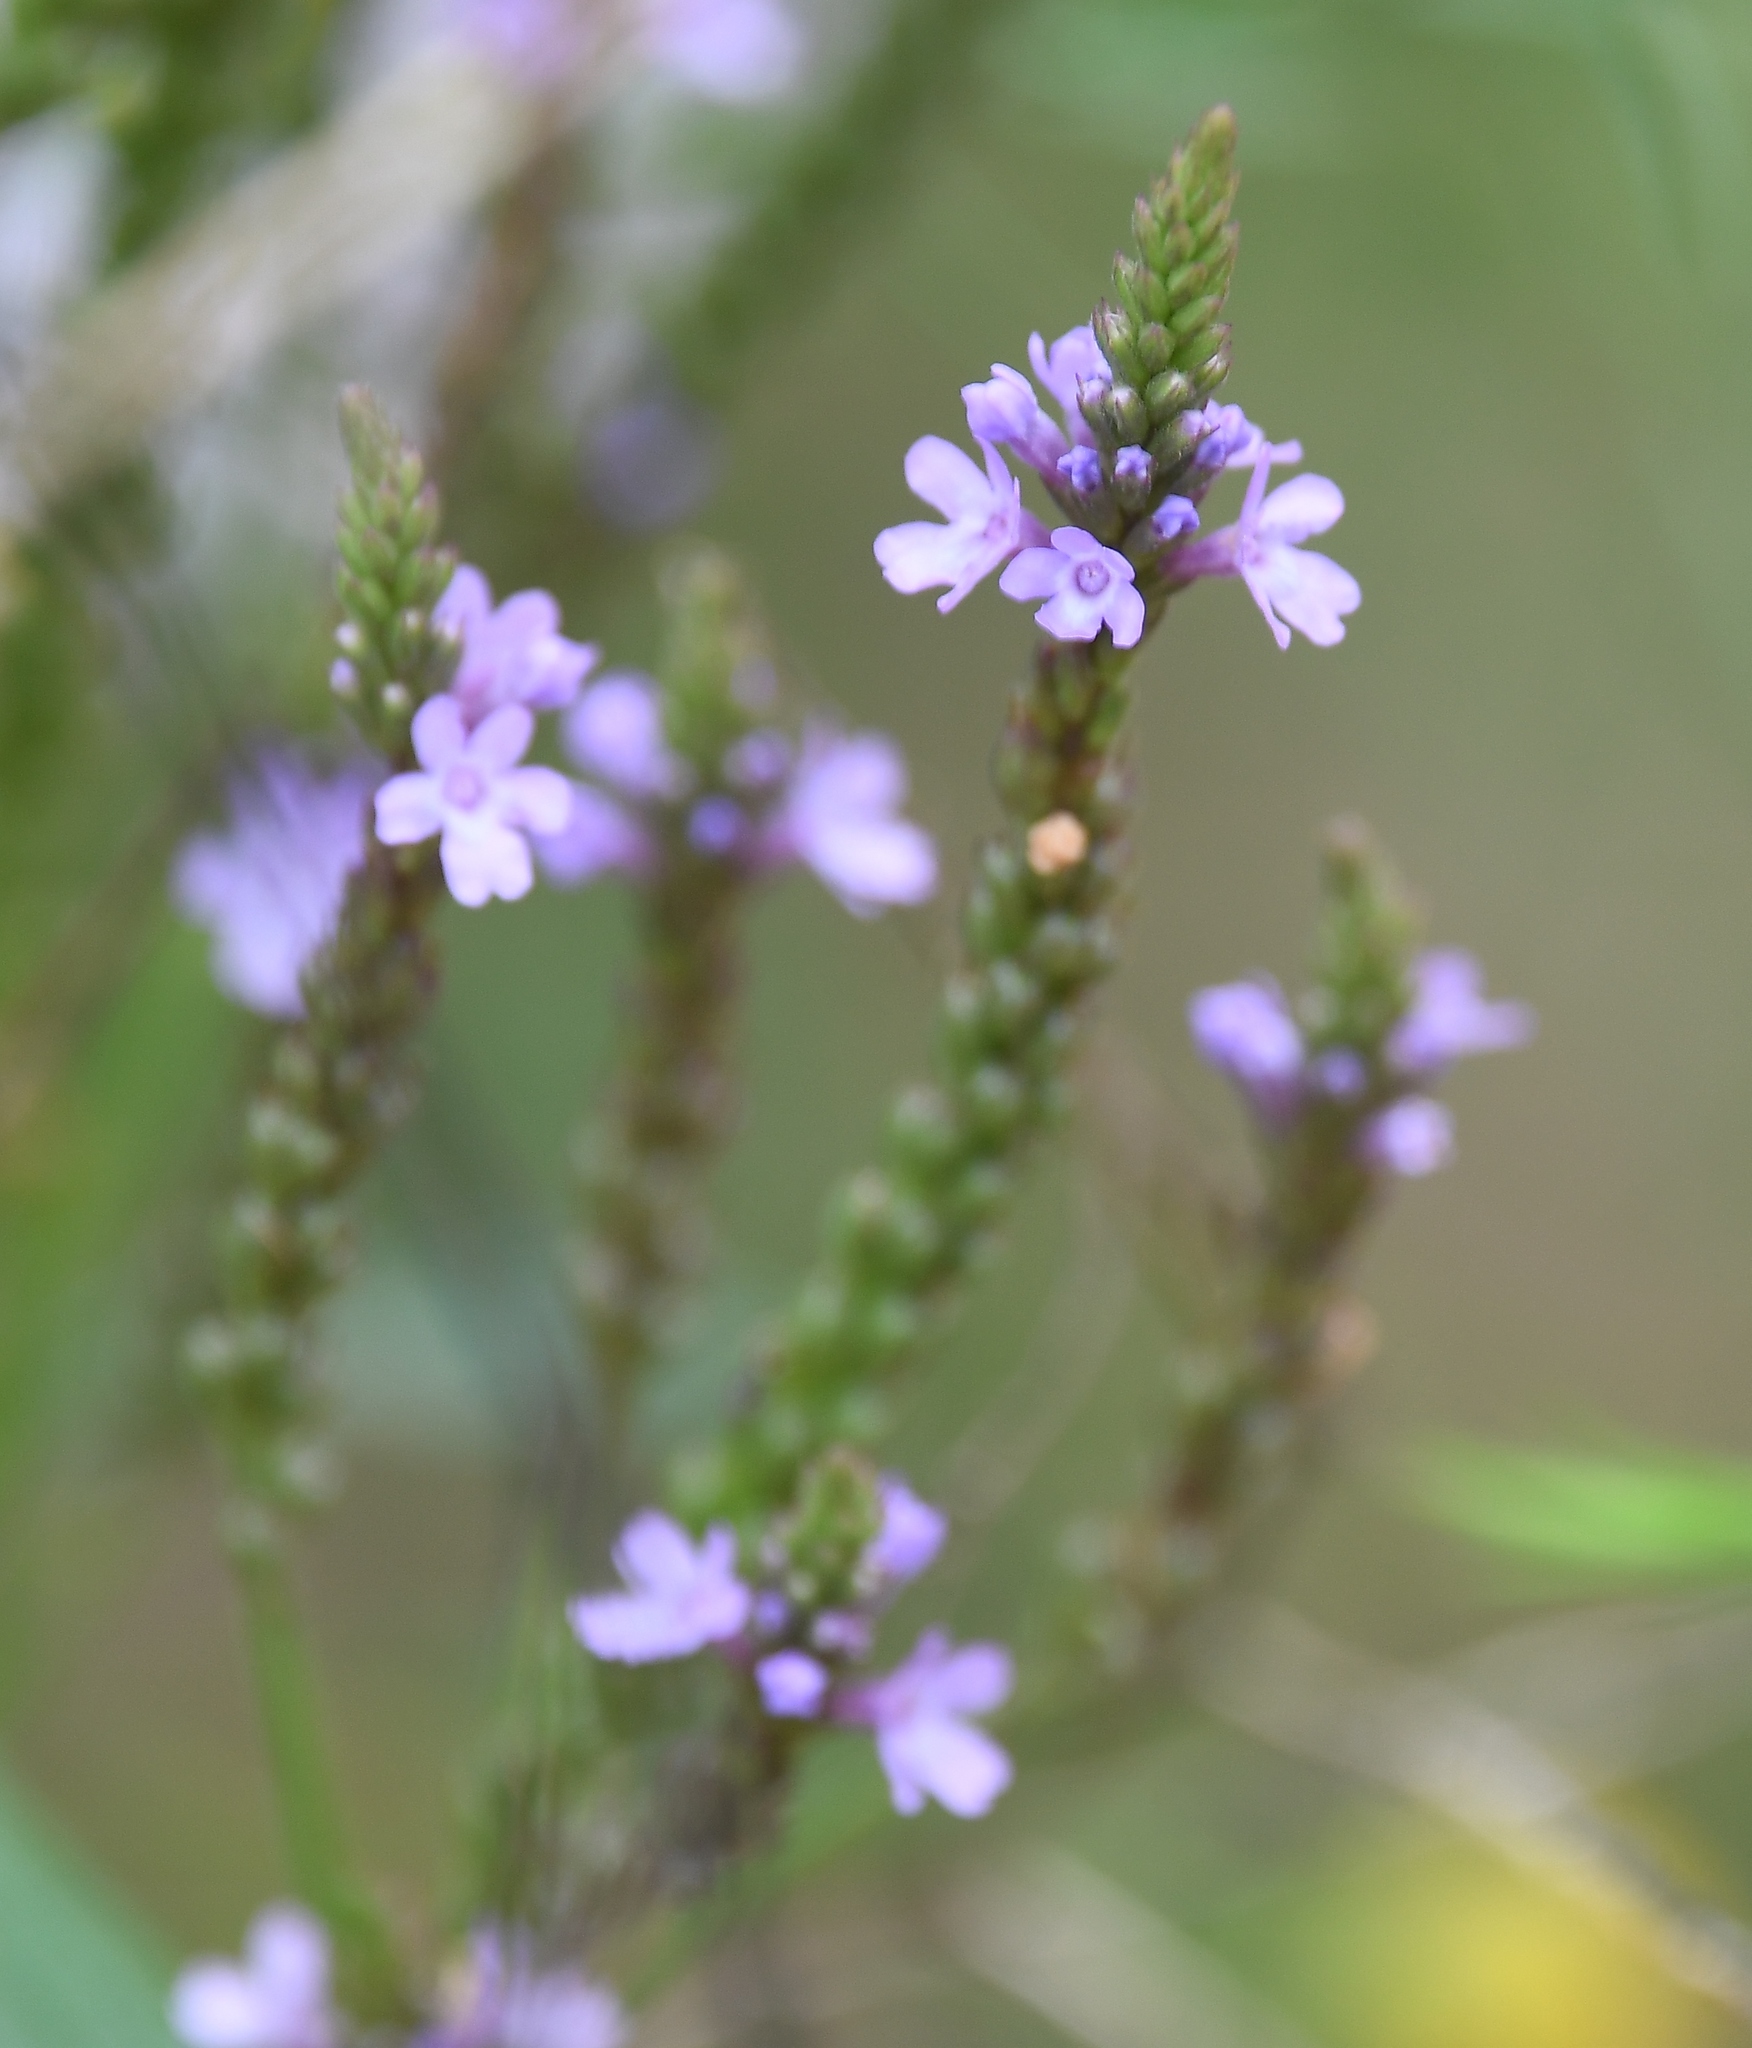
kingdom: Plantae
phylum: Tracheophyta
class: Magnoliopsida
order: Lamiales
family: Verbenaceae
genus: Verbena
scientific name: Verbena hastata
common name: American blue vervain
